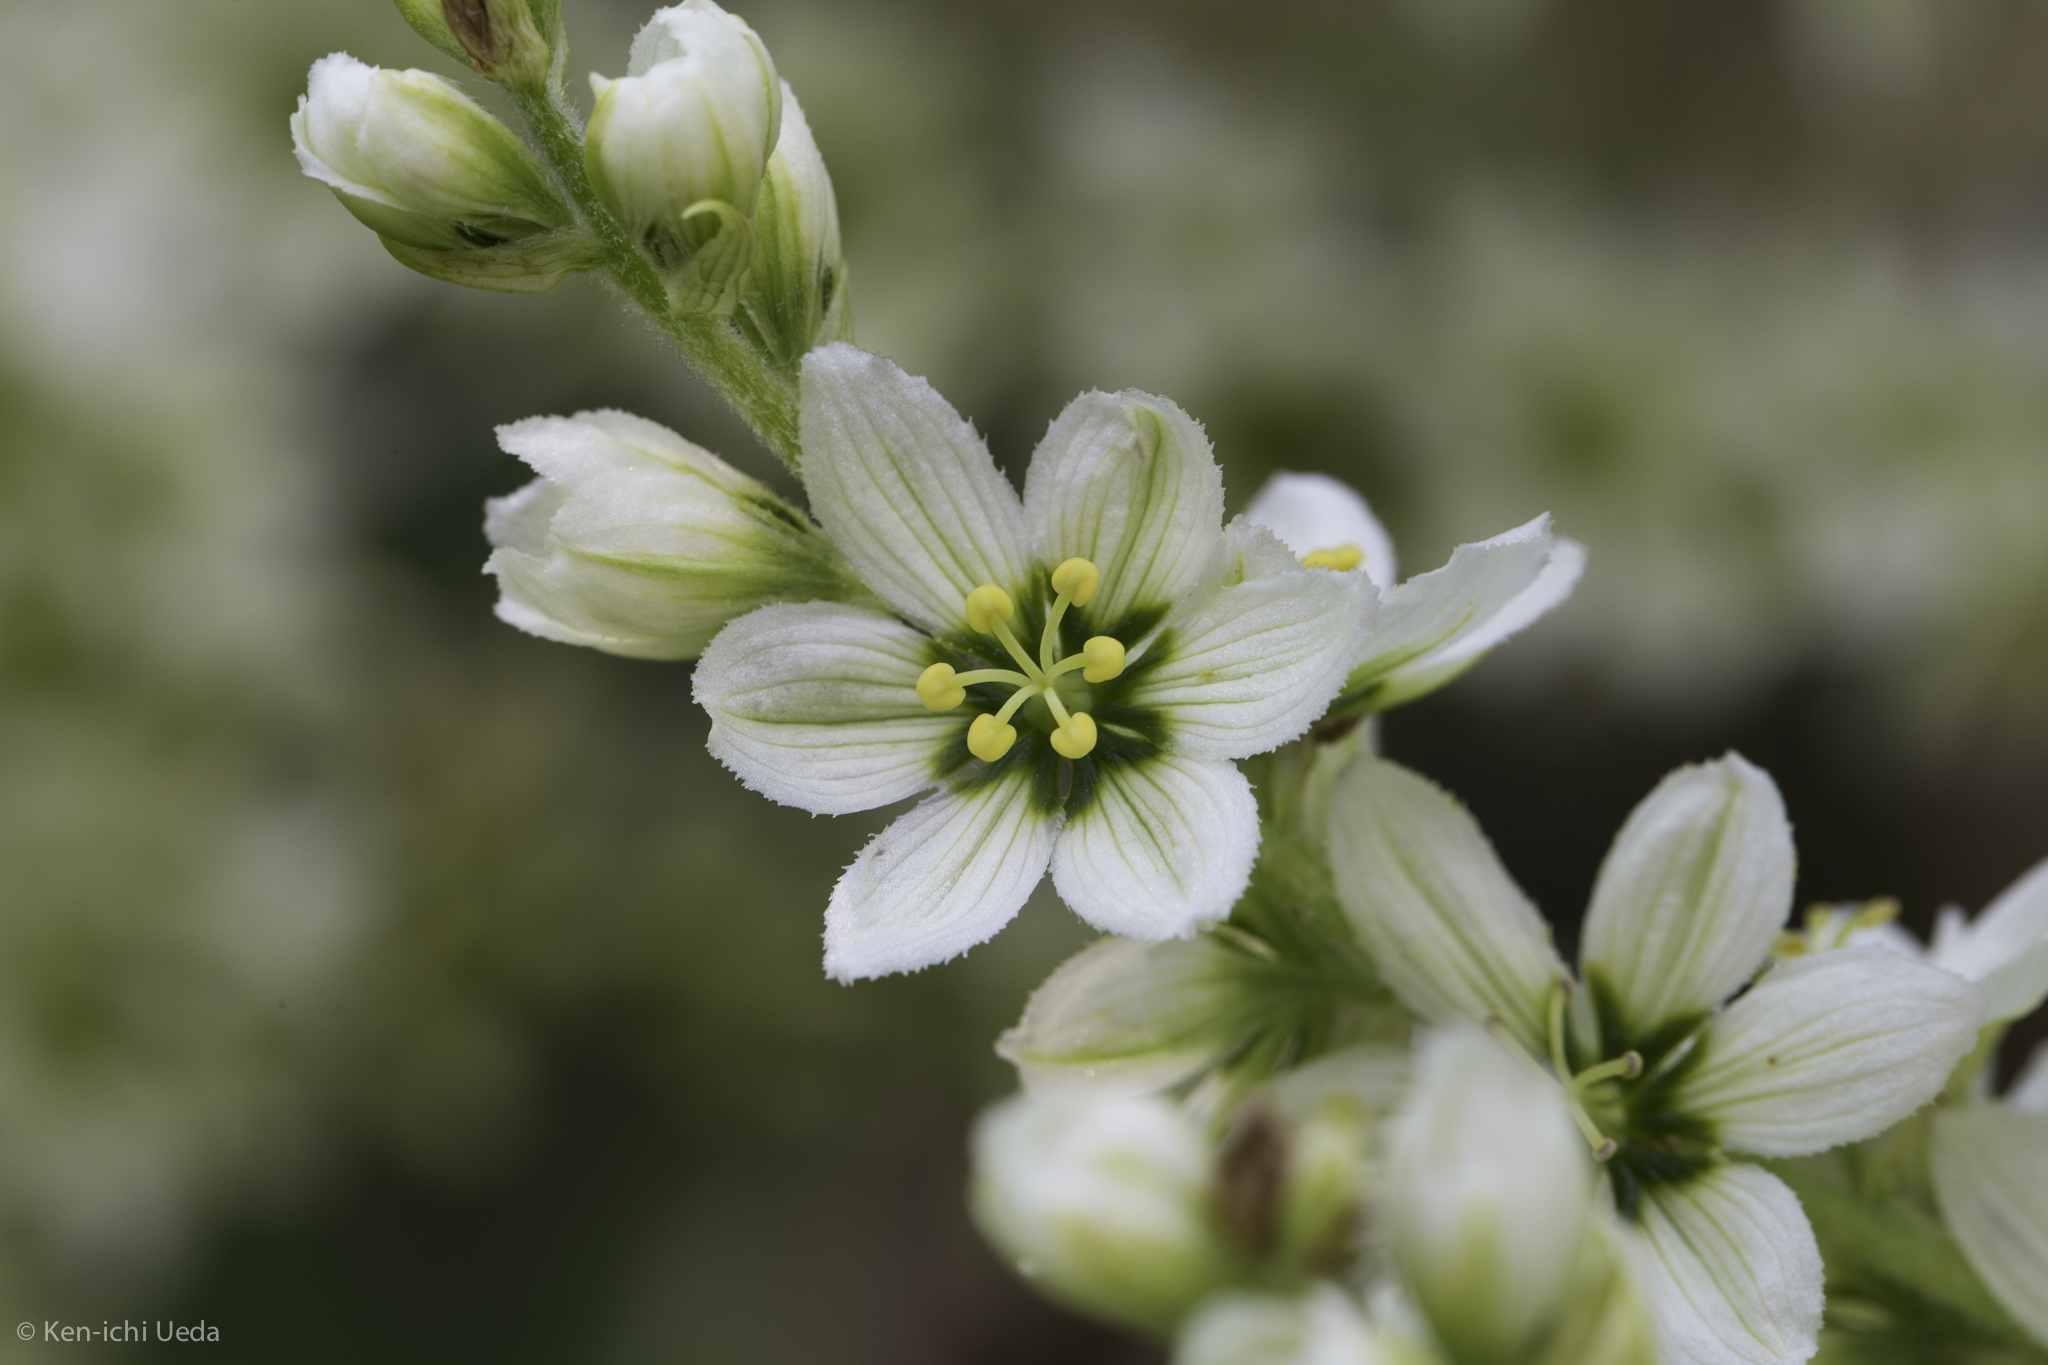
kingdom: Plantae
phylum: Tracheophyta
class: Liliopsida
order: Liliales
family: Melanthiaceae
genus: Veratrum
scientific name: Veratrum californicum
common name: California veratrum
